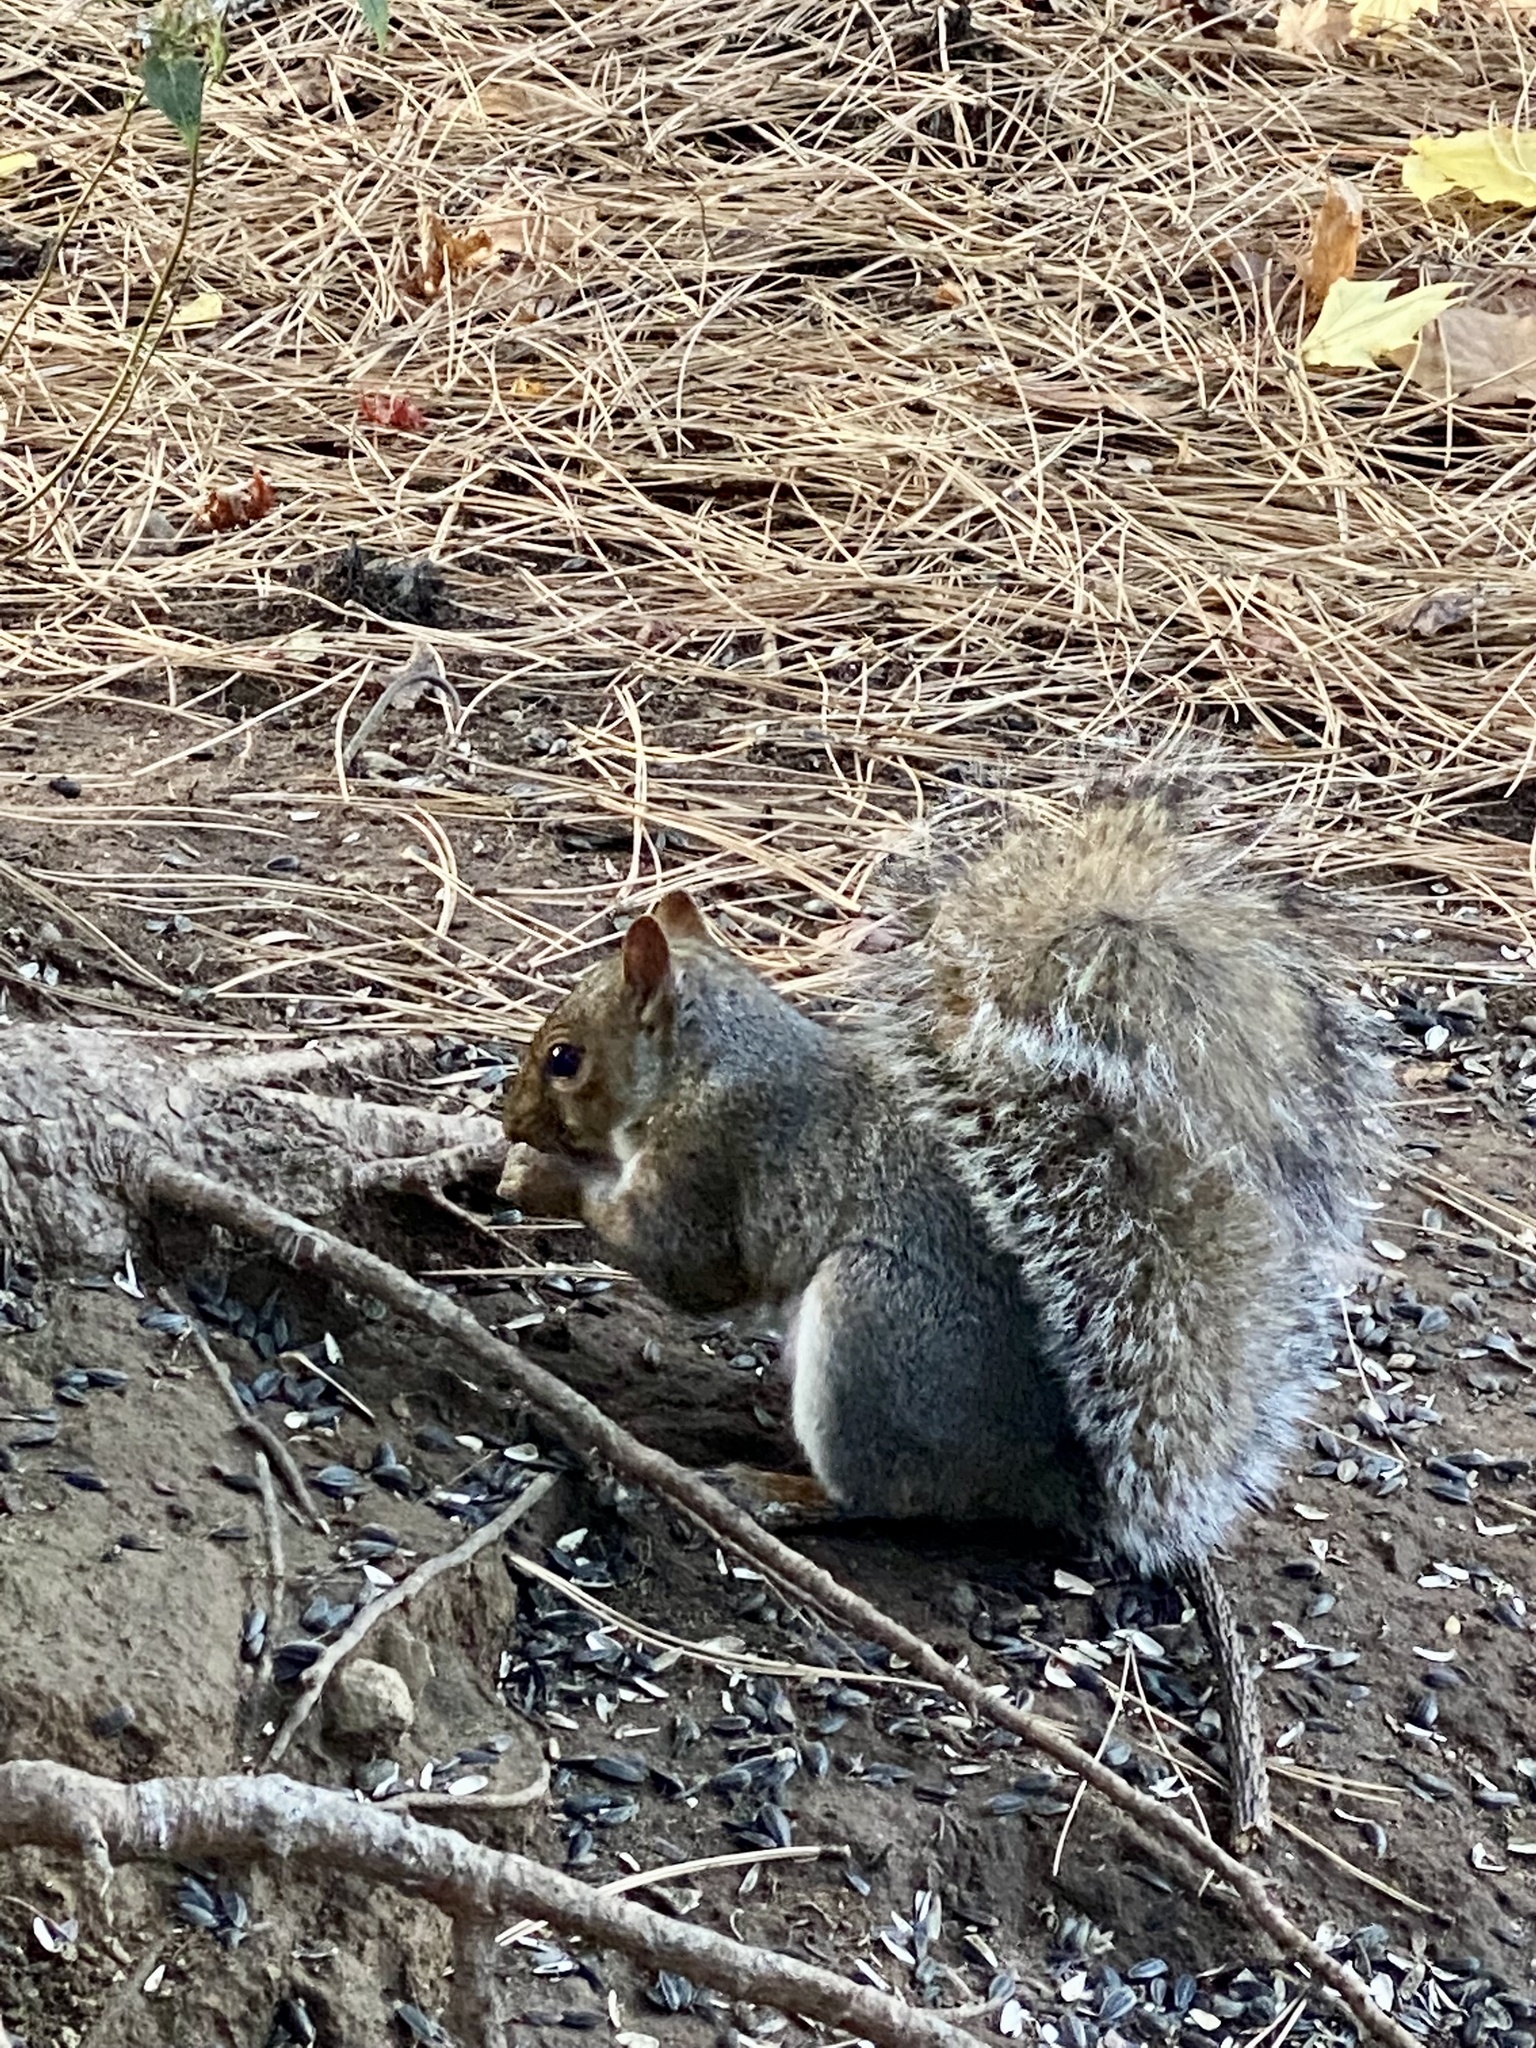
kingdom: Animalia
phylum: Chordata
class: Mammalia
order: Rodentia
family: Sciuridae
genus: Sciurus
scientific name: Sciurus carolinensis
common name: Eastern gray squirrel
